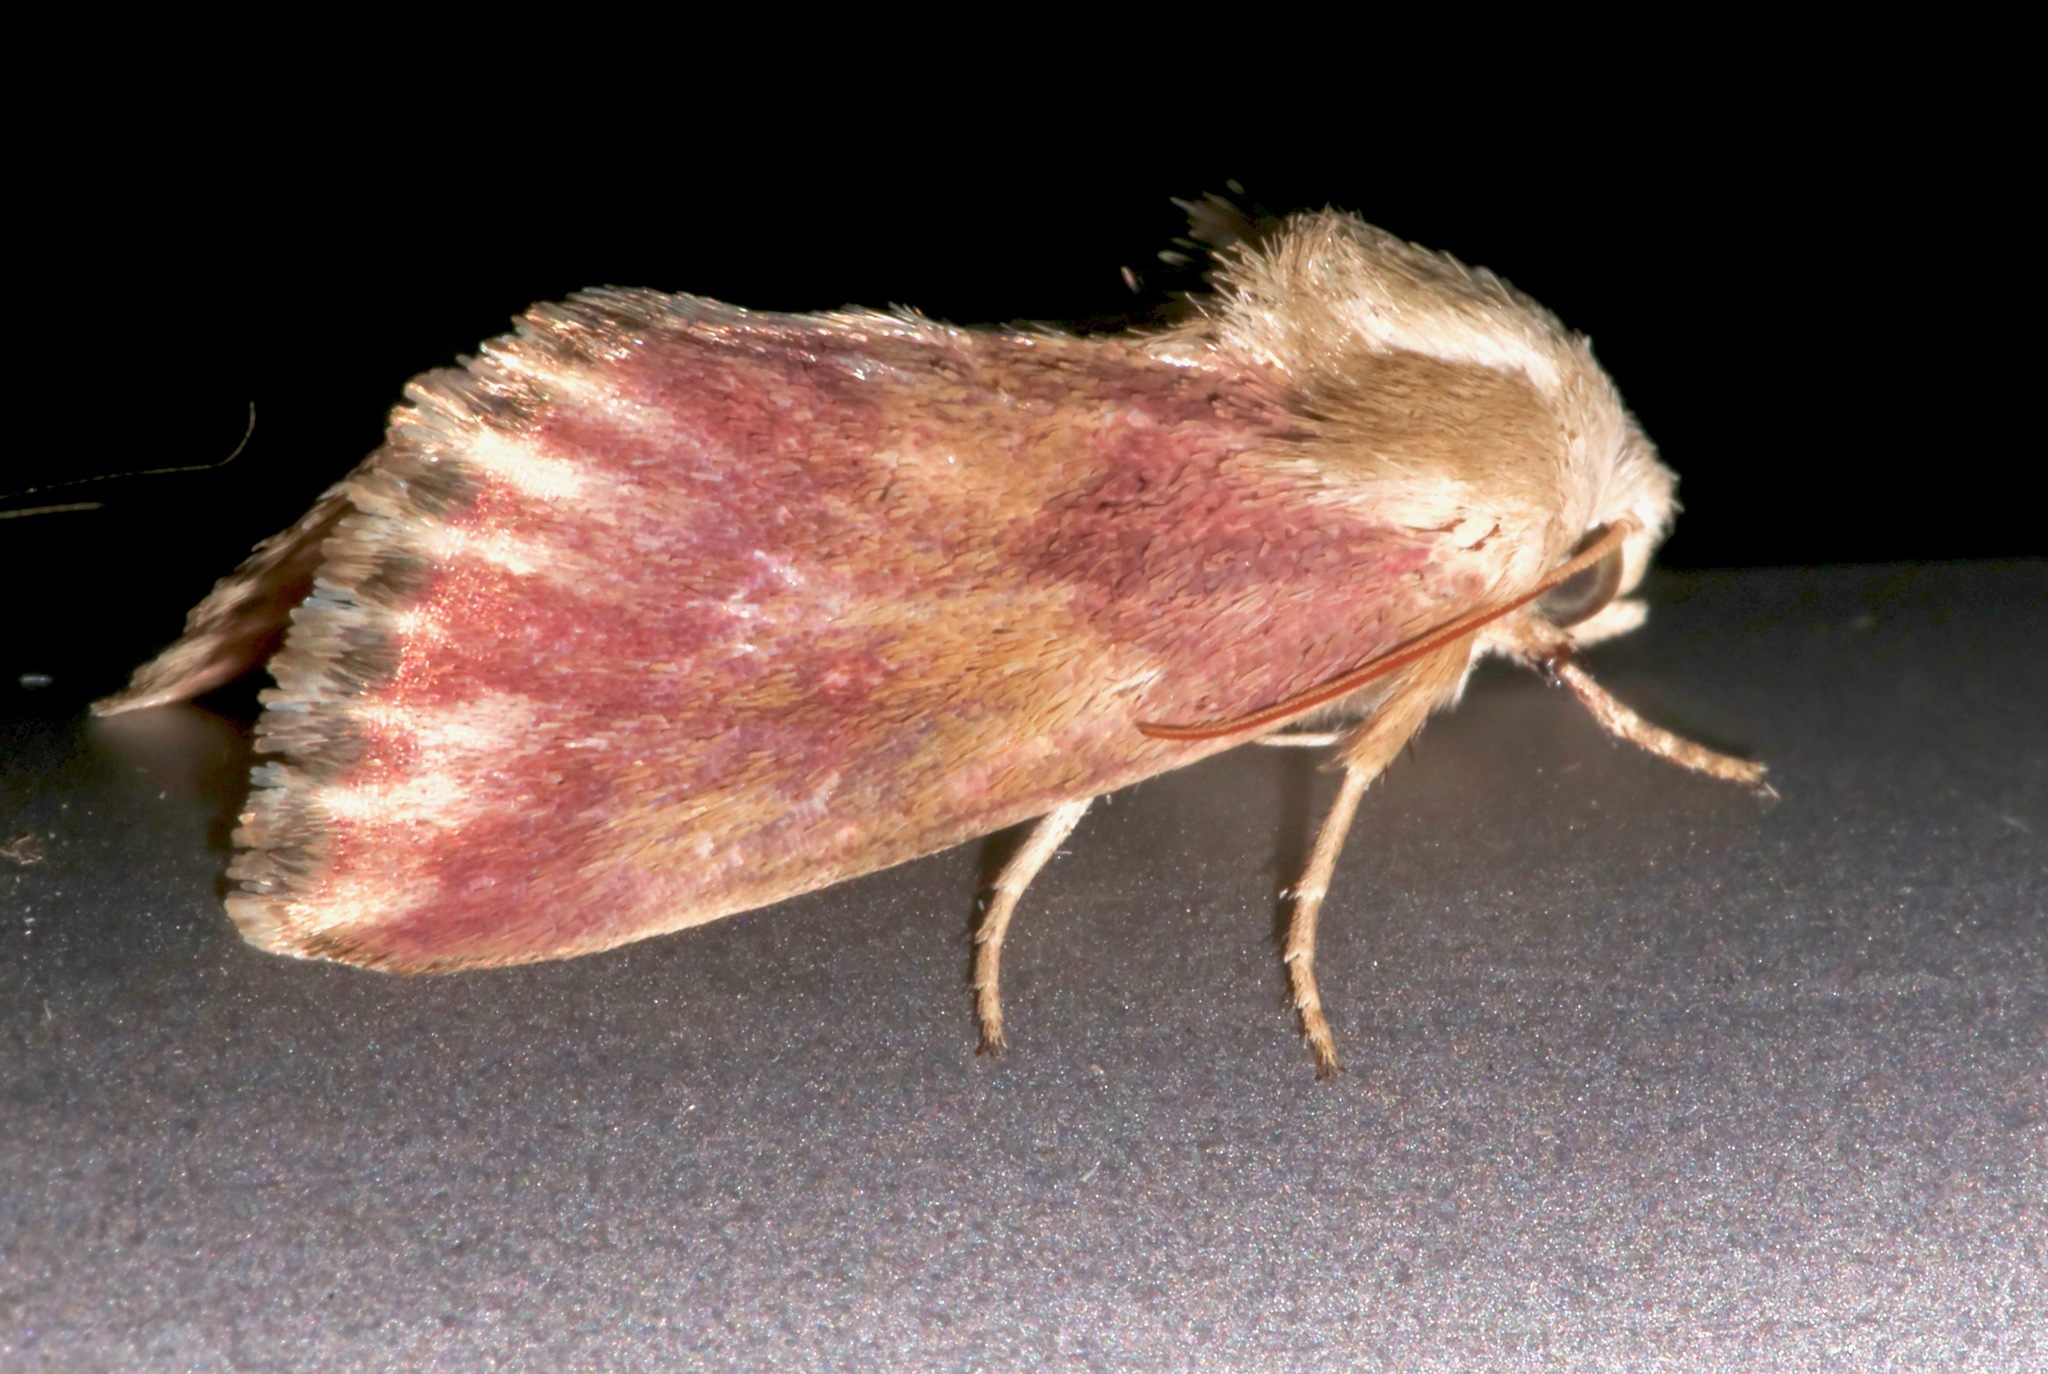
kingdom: Animalia
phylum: Arthropoda
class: Insecta
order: Lepidoptera
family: Noctuidae
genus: Schinia
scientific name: Schinia sanguinea
